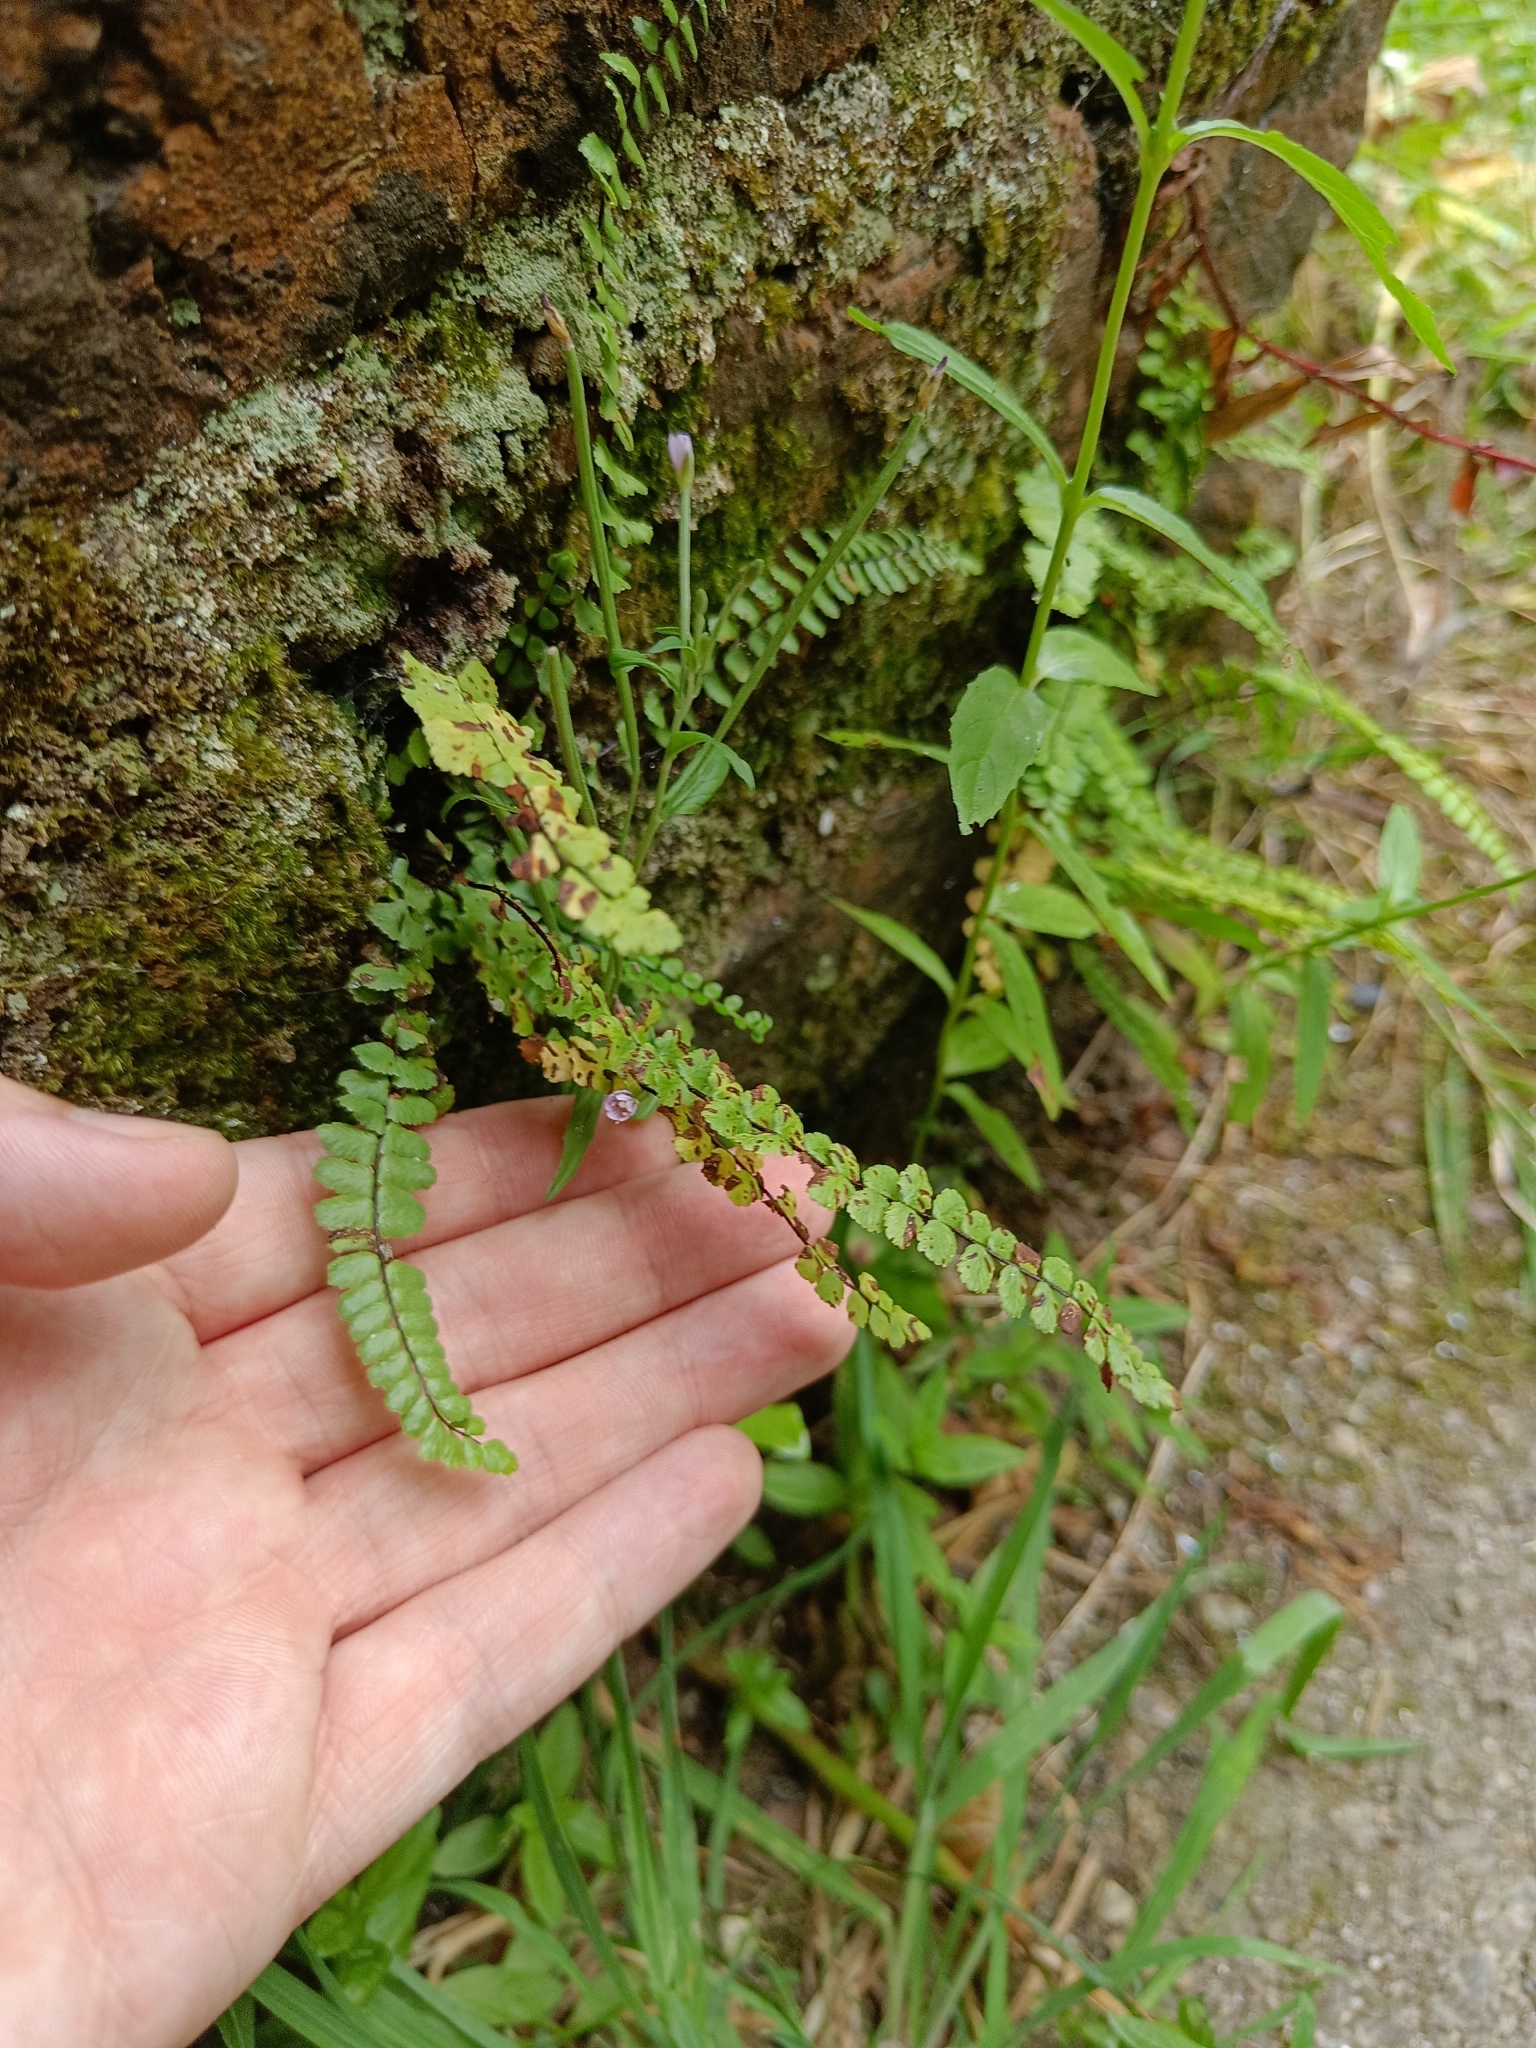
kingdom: Plantae
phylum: Tracheophyta
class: Polypodiopsida
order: Polypodiales
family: Aspleniaceae
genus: Asplenium
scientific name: Asplenium trichomanes
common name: Maidenhair spleenwort
